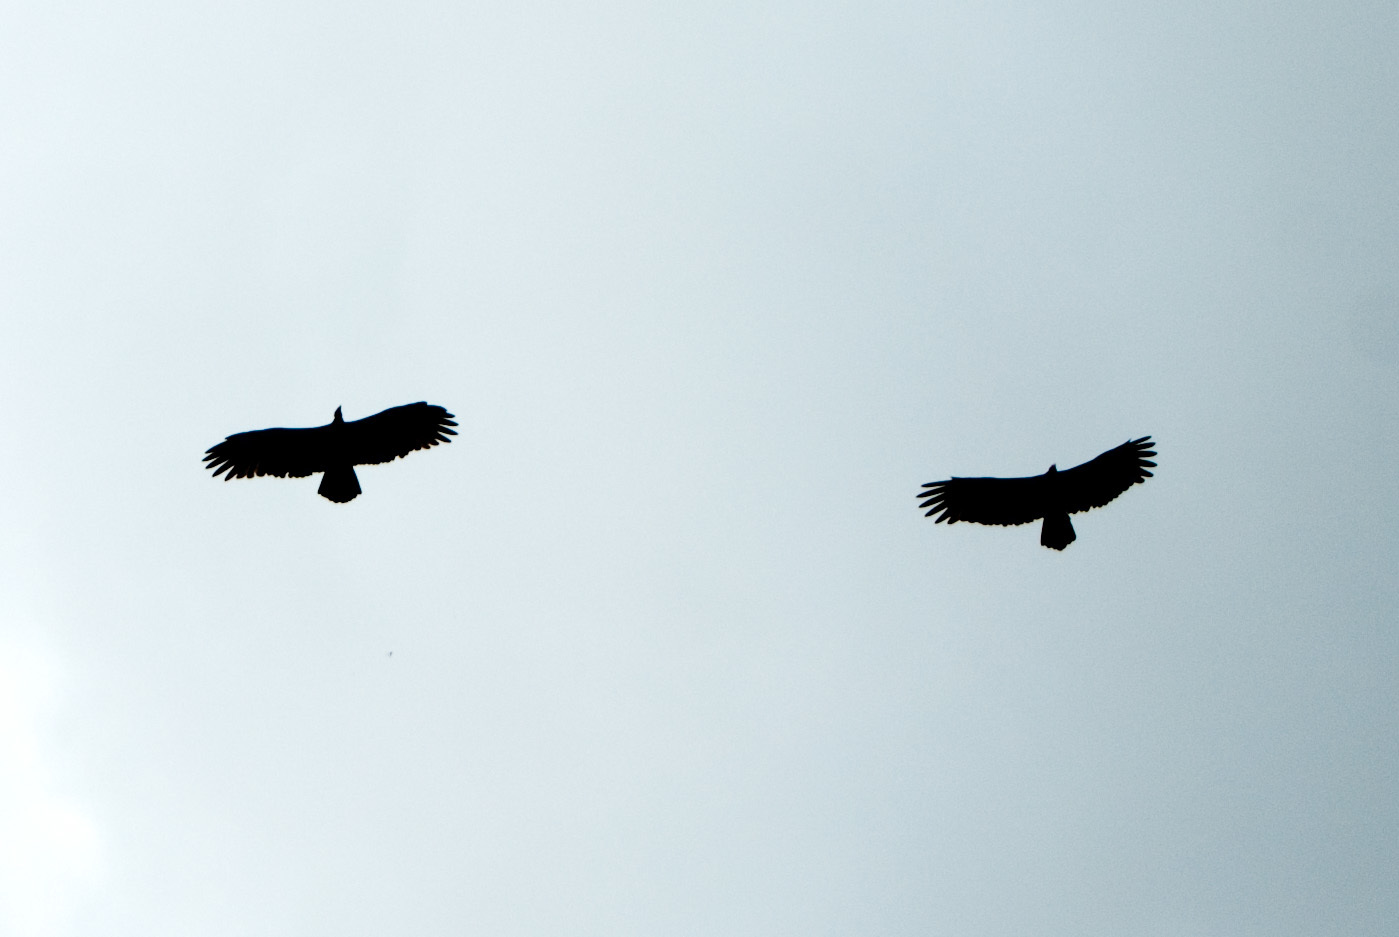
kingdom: Animalia
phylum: Chordata
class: Aves
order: Accipitriformes
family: Cathartidae
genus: Cathartes
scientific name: Cathartes aura
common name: Turkey vulture
